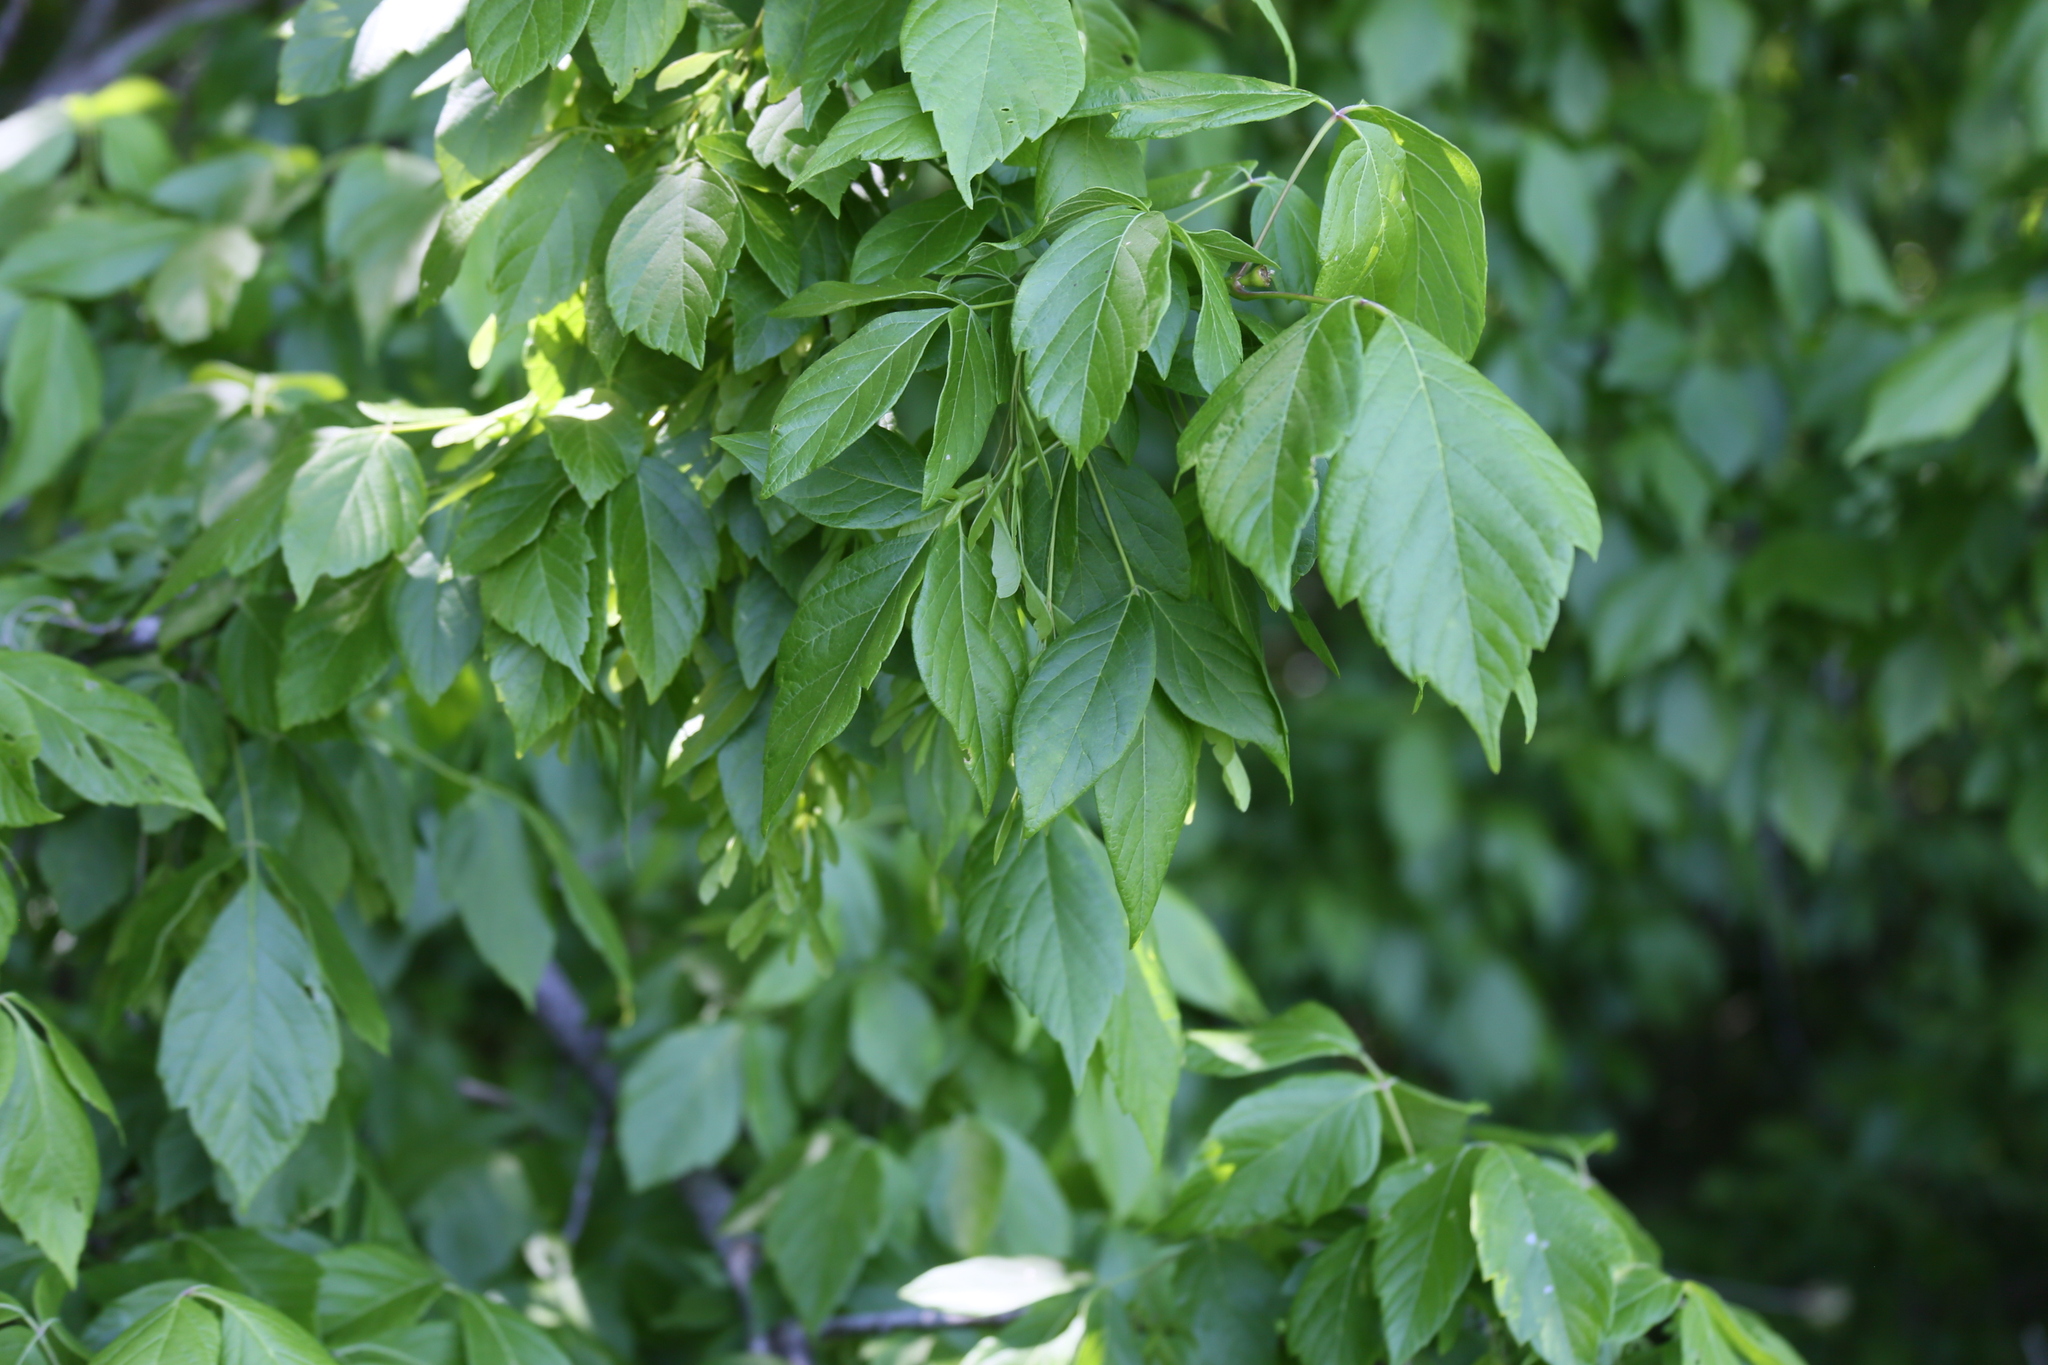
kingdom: Plantae
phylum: Tracheophyta
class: Magnoliopsida
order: Sapindales
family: Sapindaceae
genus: Acer
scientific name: Acer negundo
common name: Ashleaf maple
